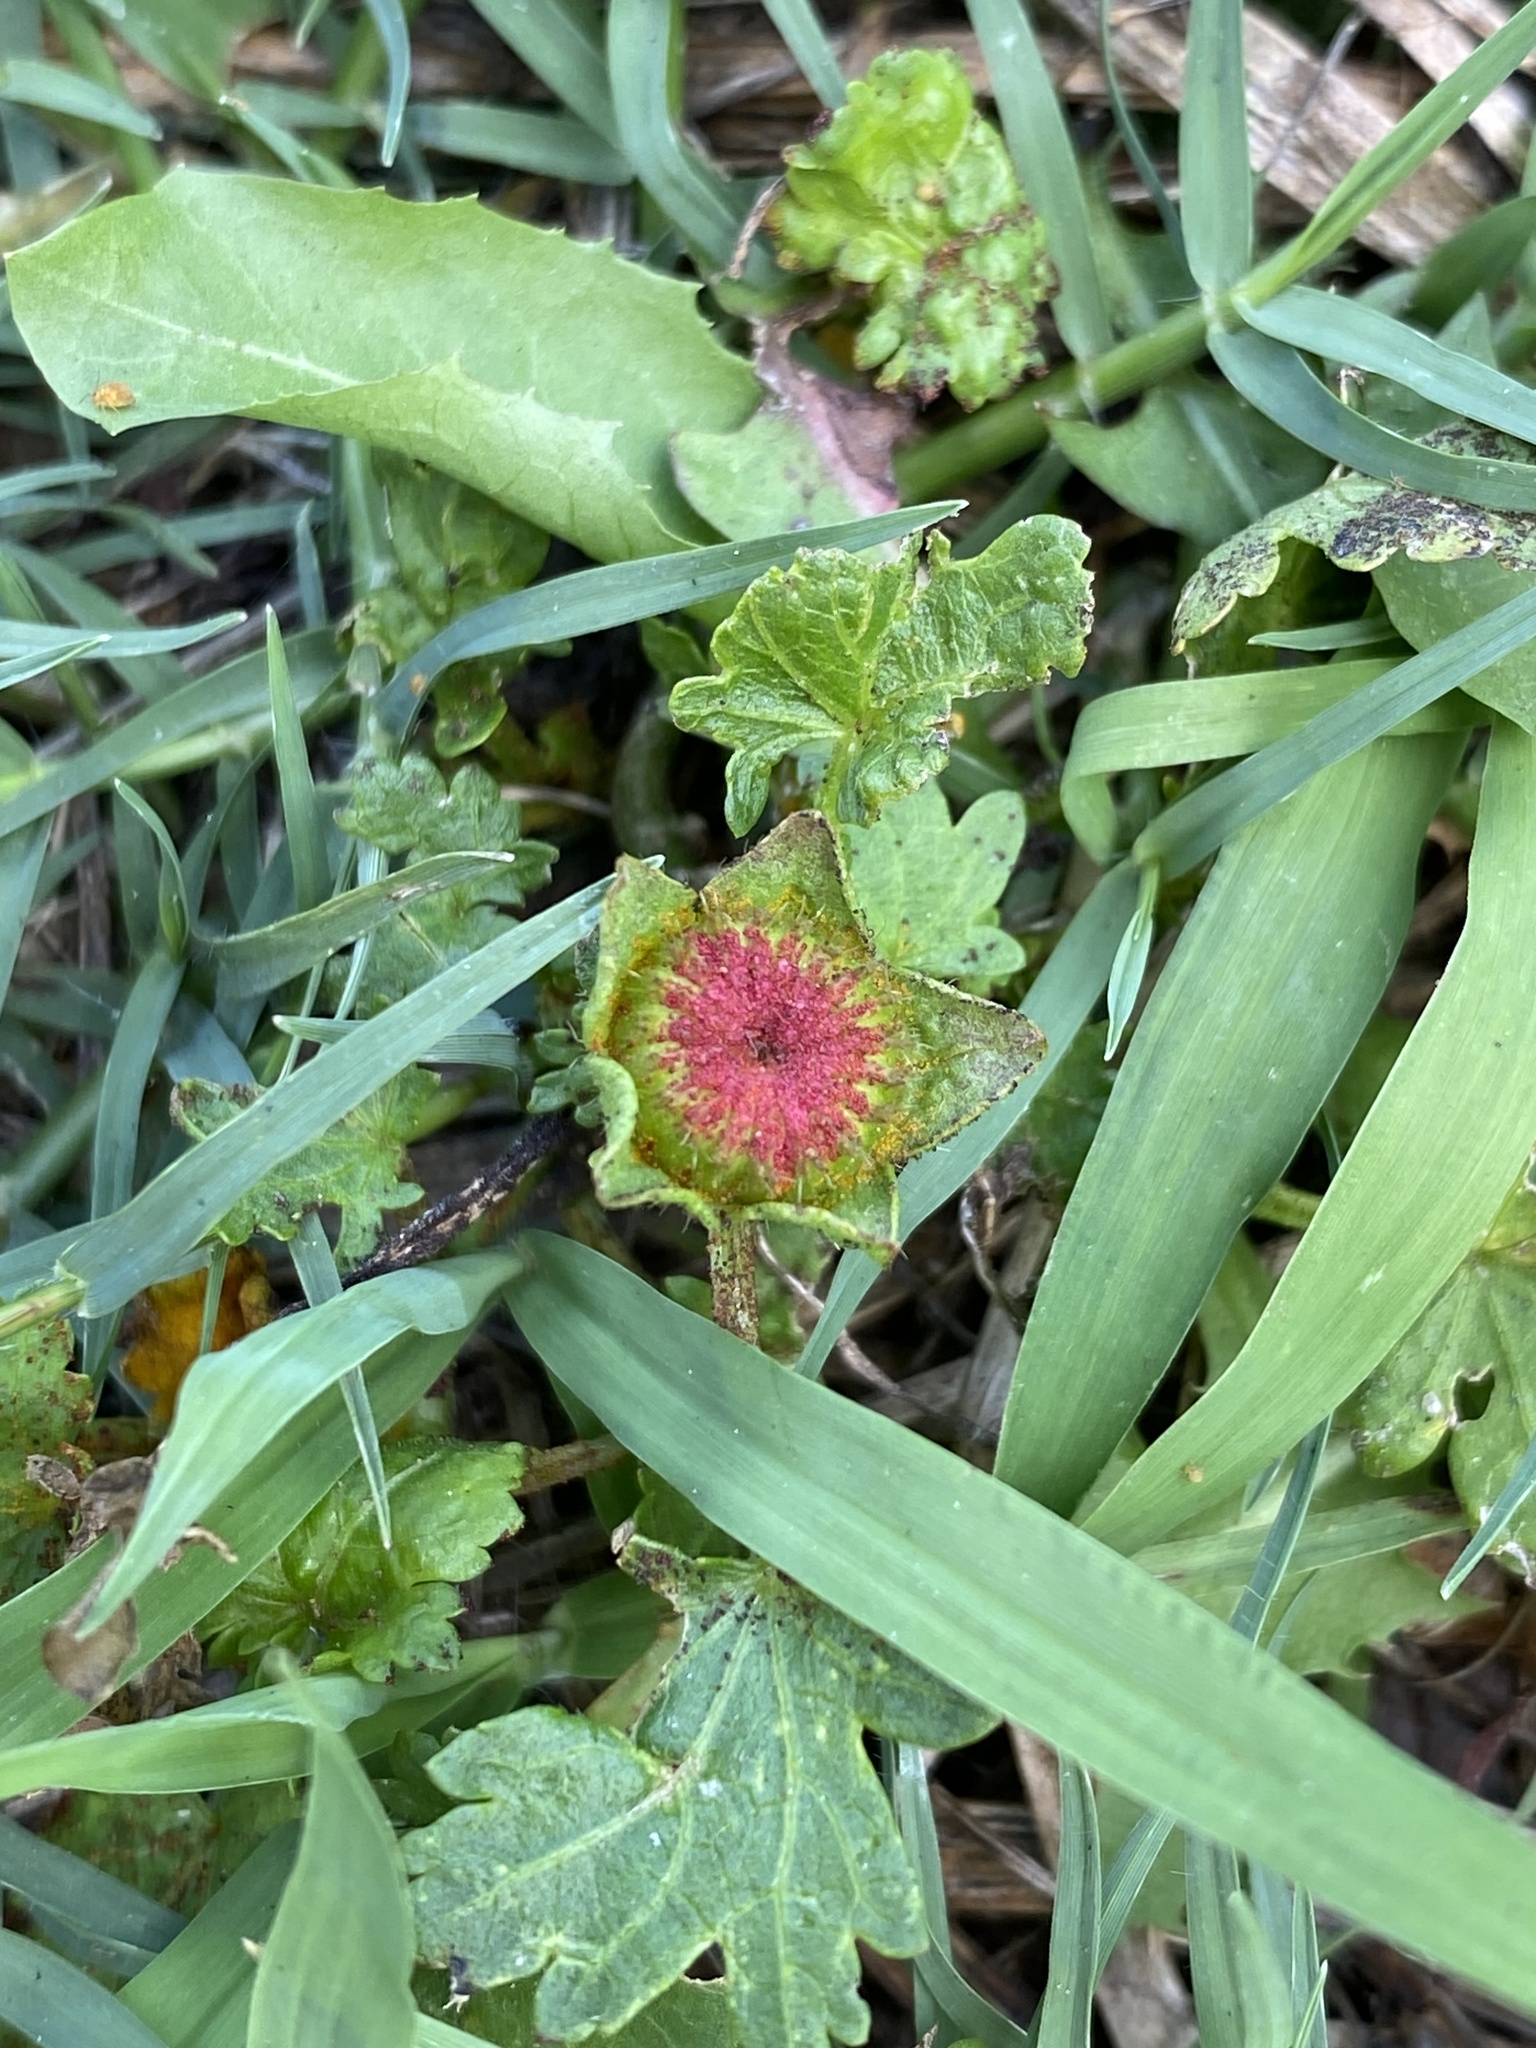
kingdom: Plantae
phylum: Tracheophyta
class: Magnoliopsida
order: Malvales
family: Malvaceae
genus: Modiola
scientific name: Modiola caroliniana
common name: Carolina bristlemallow
